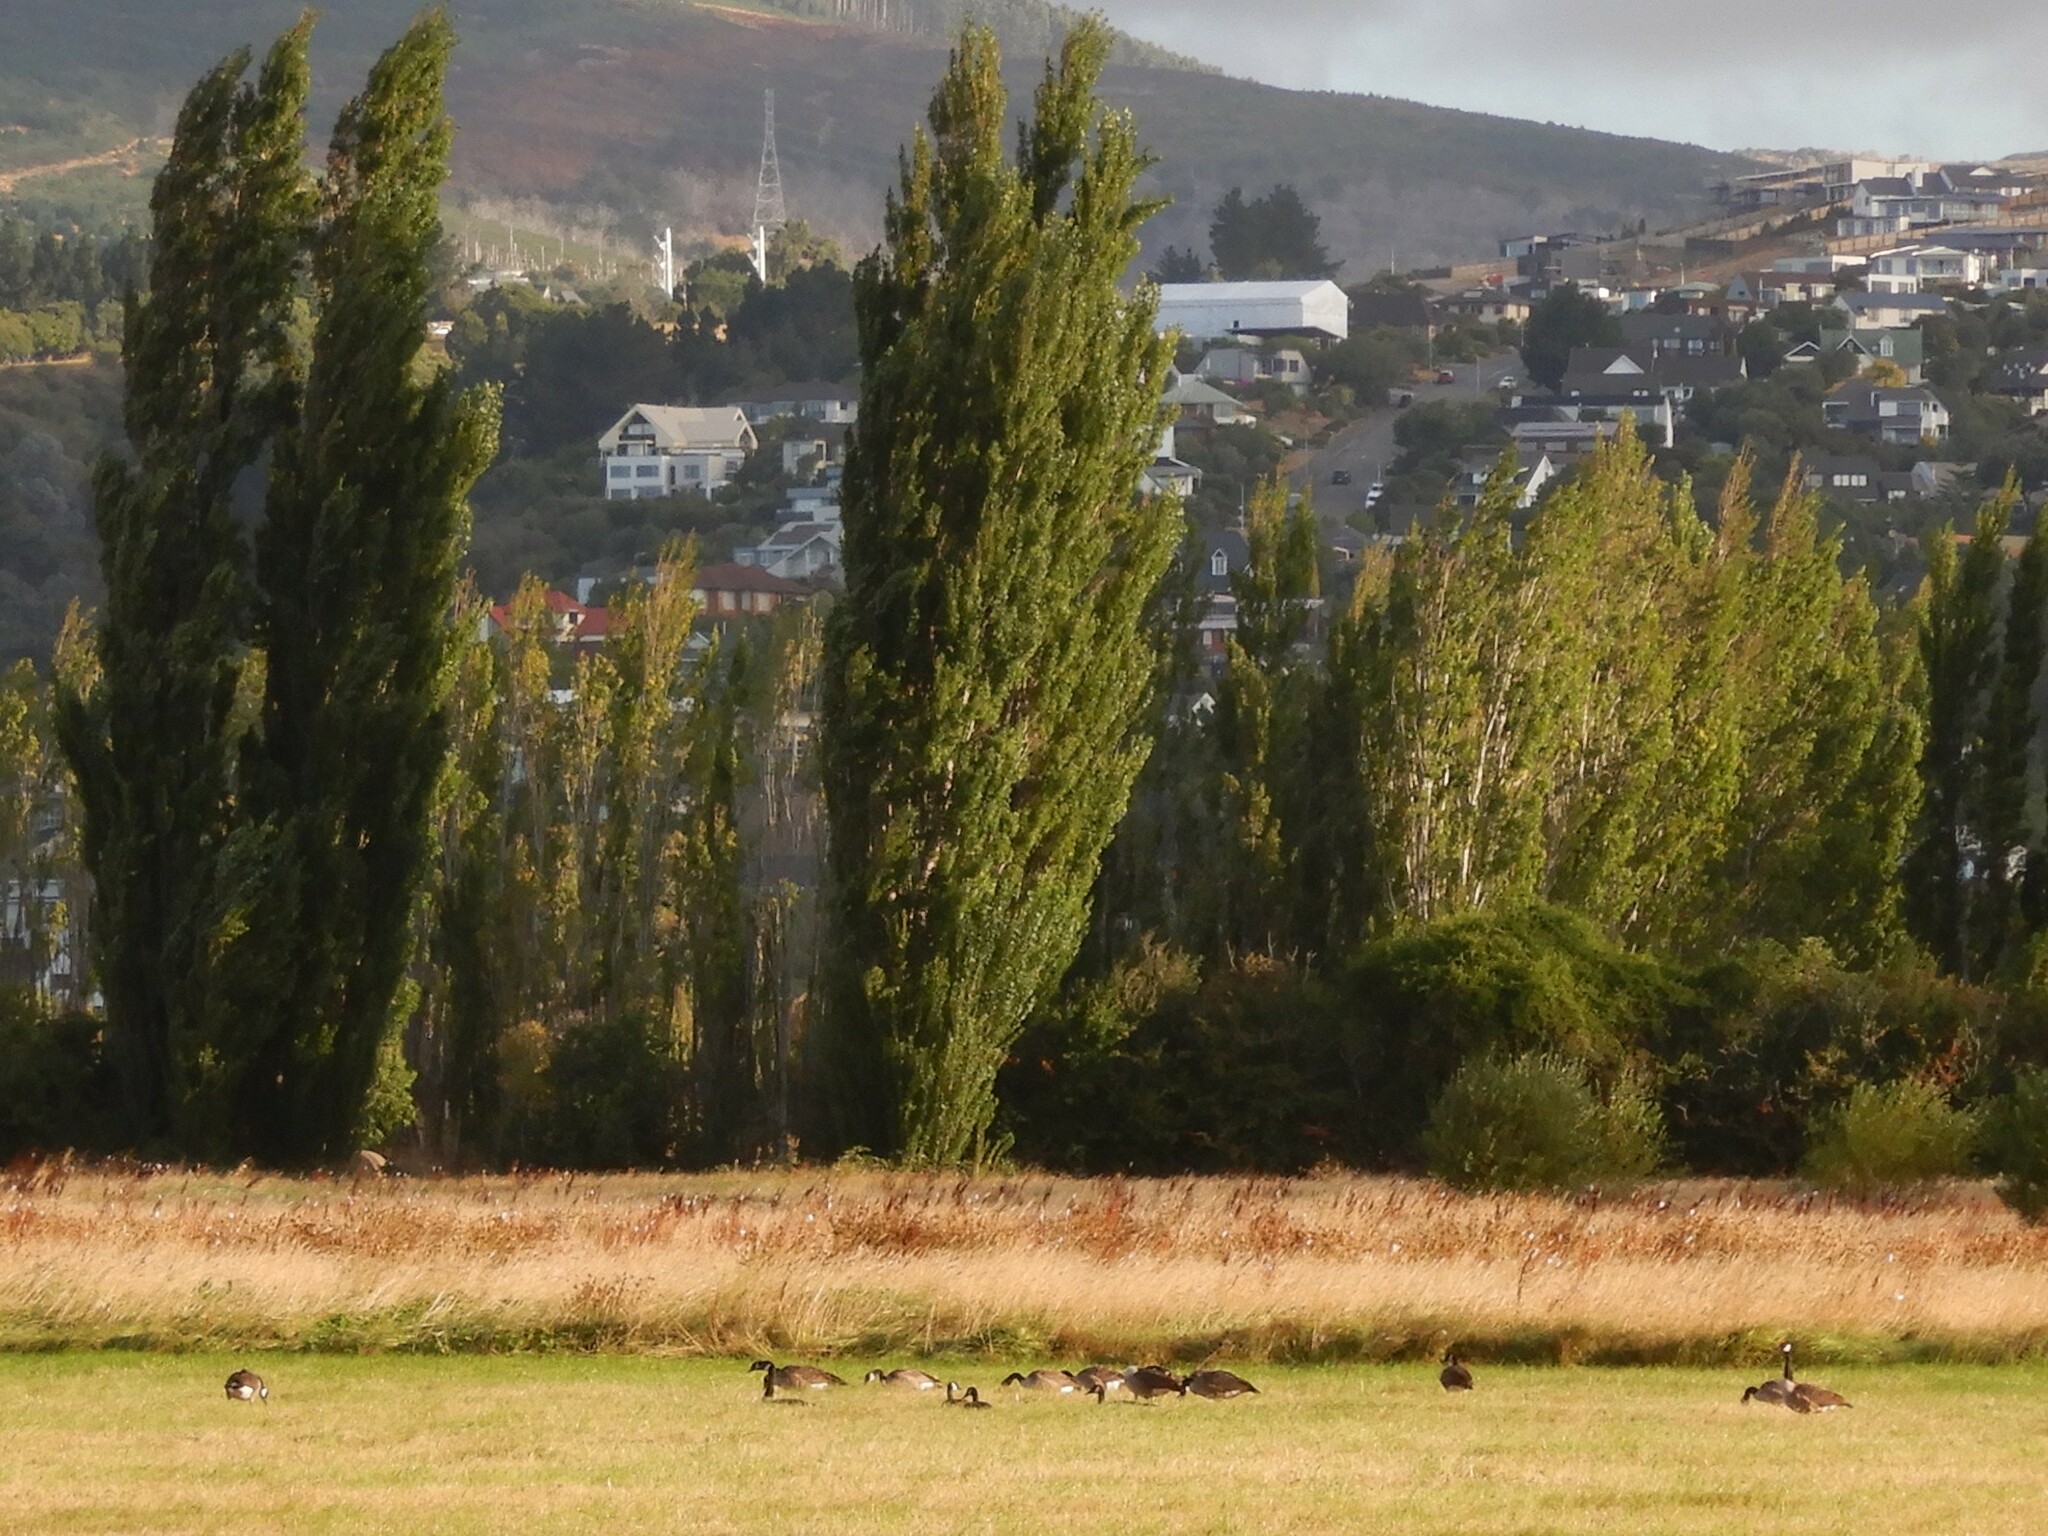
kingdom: Animalia
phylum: Chordata
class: Aves
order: Anseriformes
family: Anatidae
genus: Branta
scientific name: Branta canadensis
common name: Canada goose
